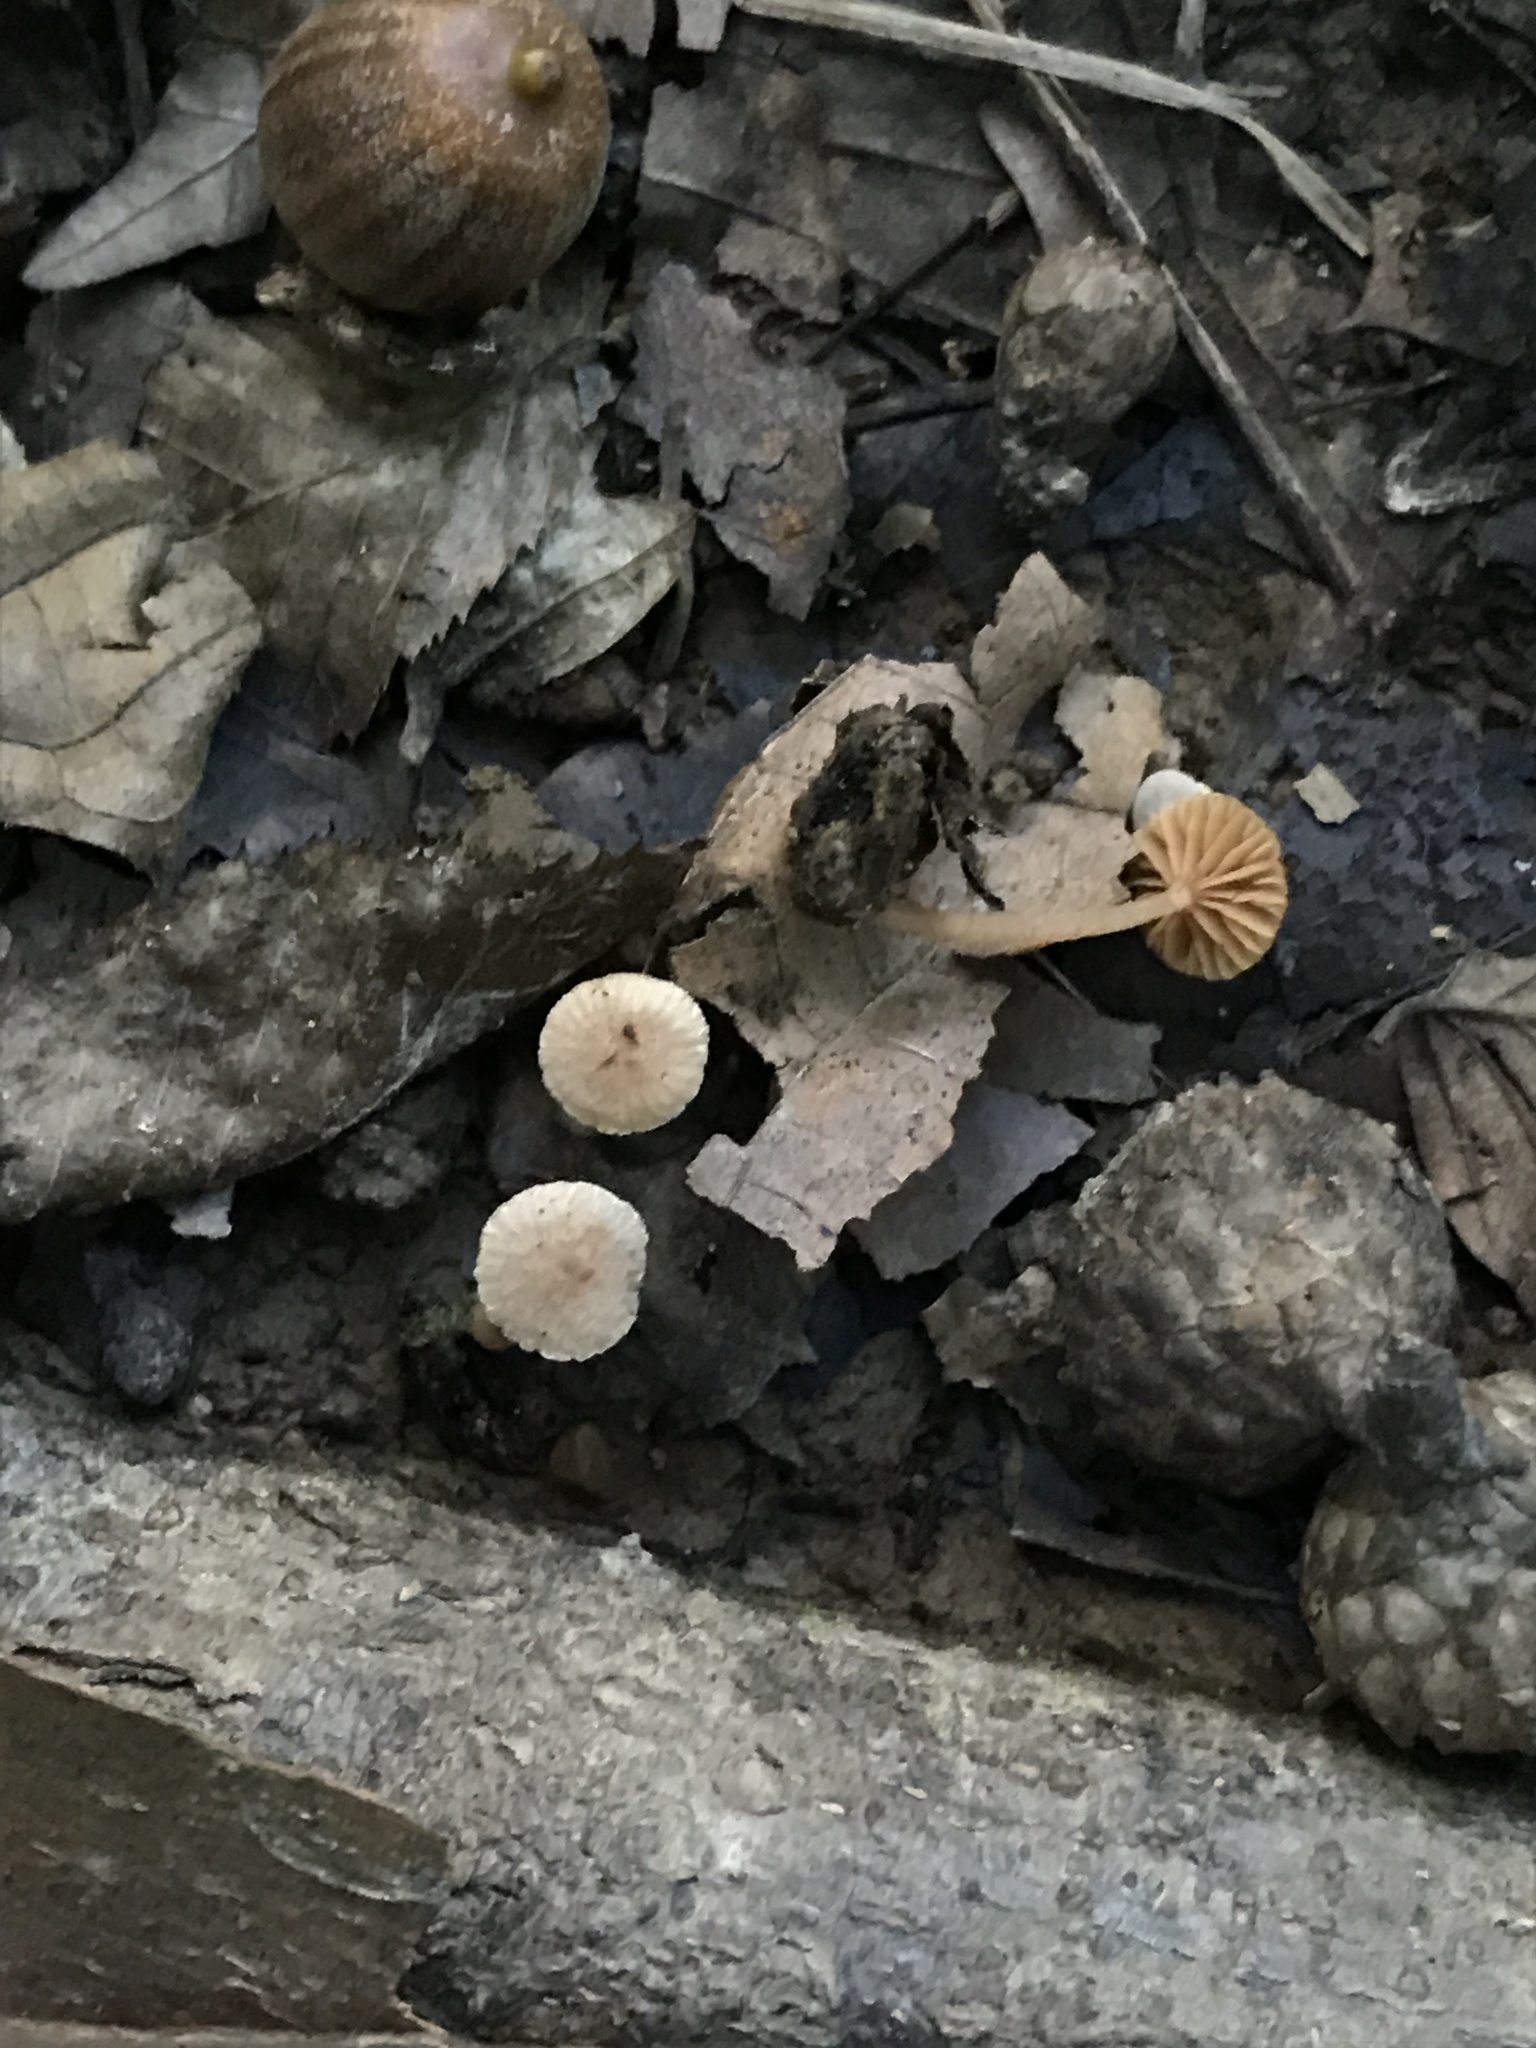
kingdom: Fungi
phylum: Basidiomycota
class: Agaricomycetes
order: Agaricales
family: Tubariaceae
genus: Tubaria
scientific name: Tubaria furfuracea
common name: Scurfy twiglet
